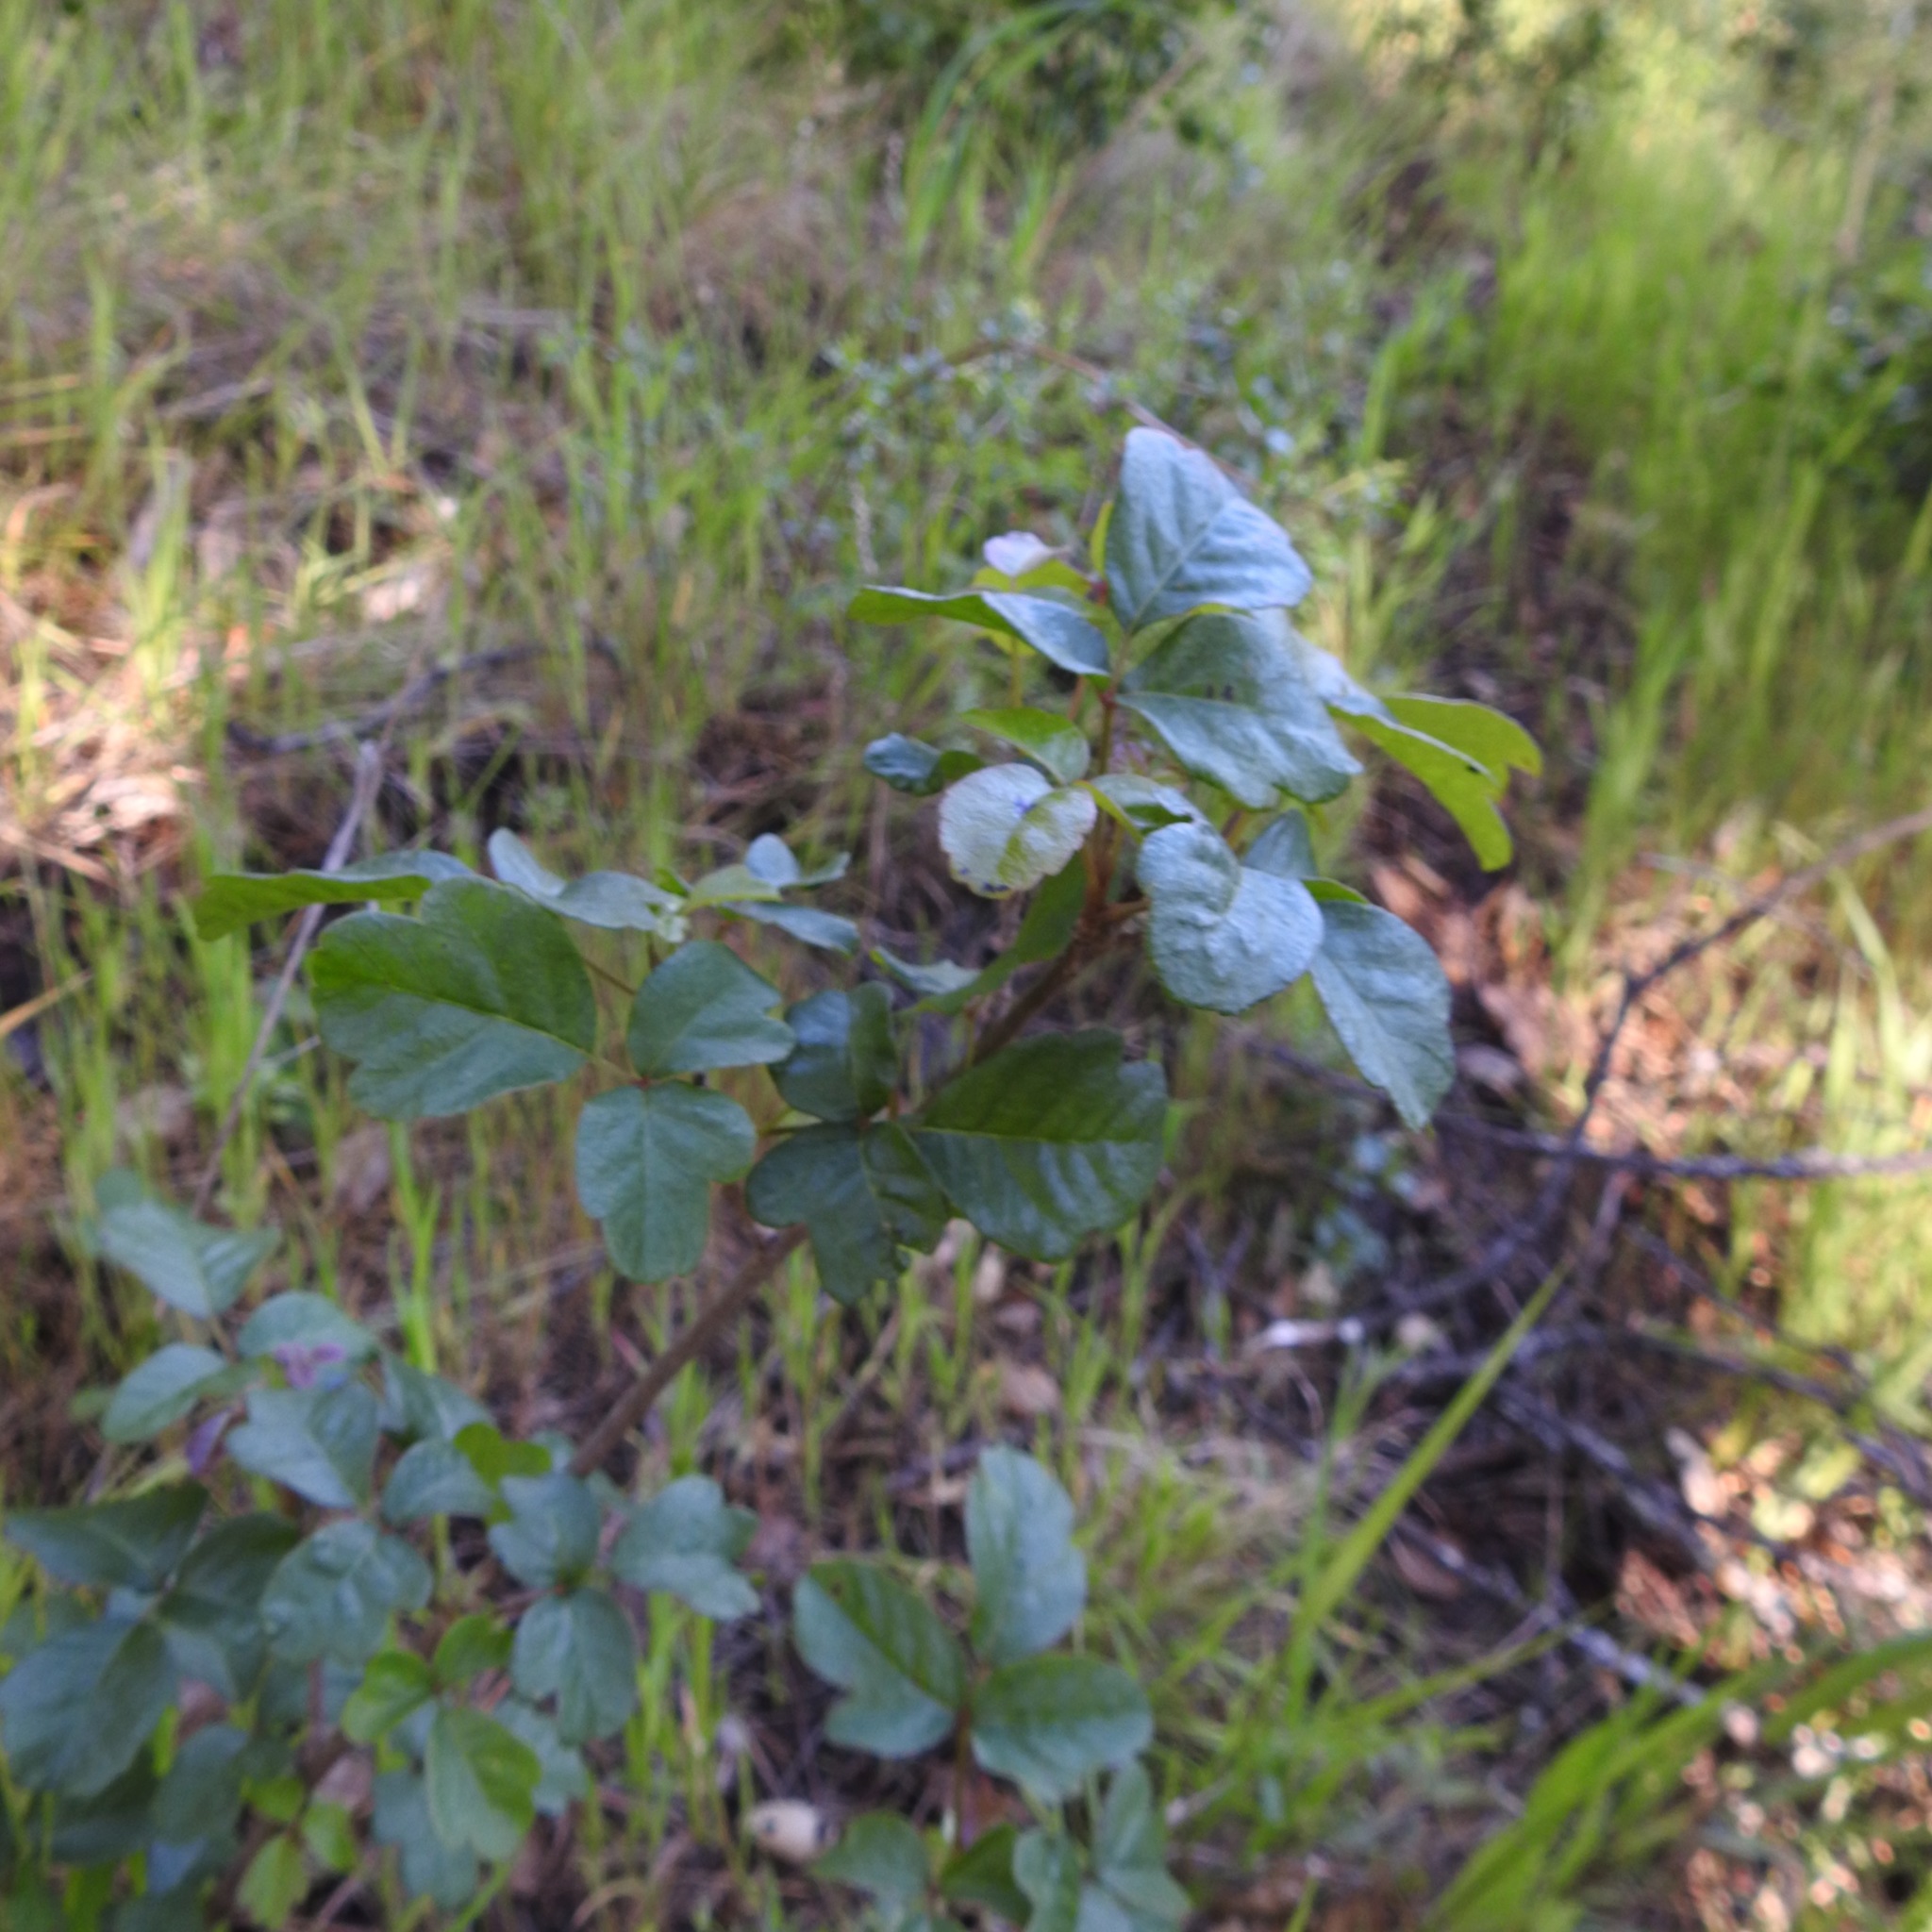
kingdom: Plantae
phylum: Tracheophyta
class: Magnoliopsida
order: Sapindales
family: Anacardiaceae
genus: Toxicodendron
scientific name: Toxicodendron diversilobum
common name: Pacific poison-oak
